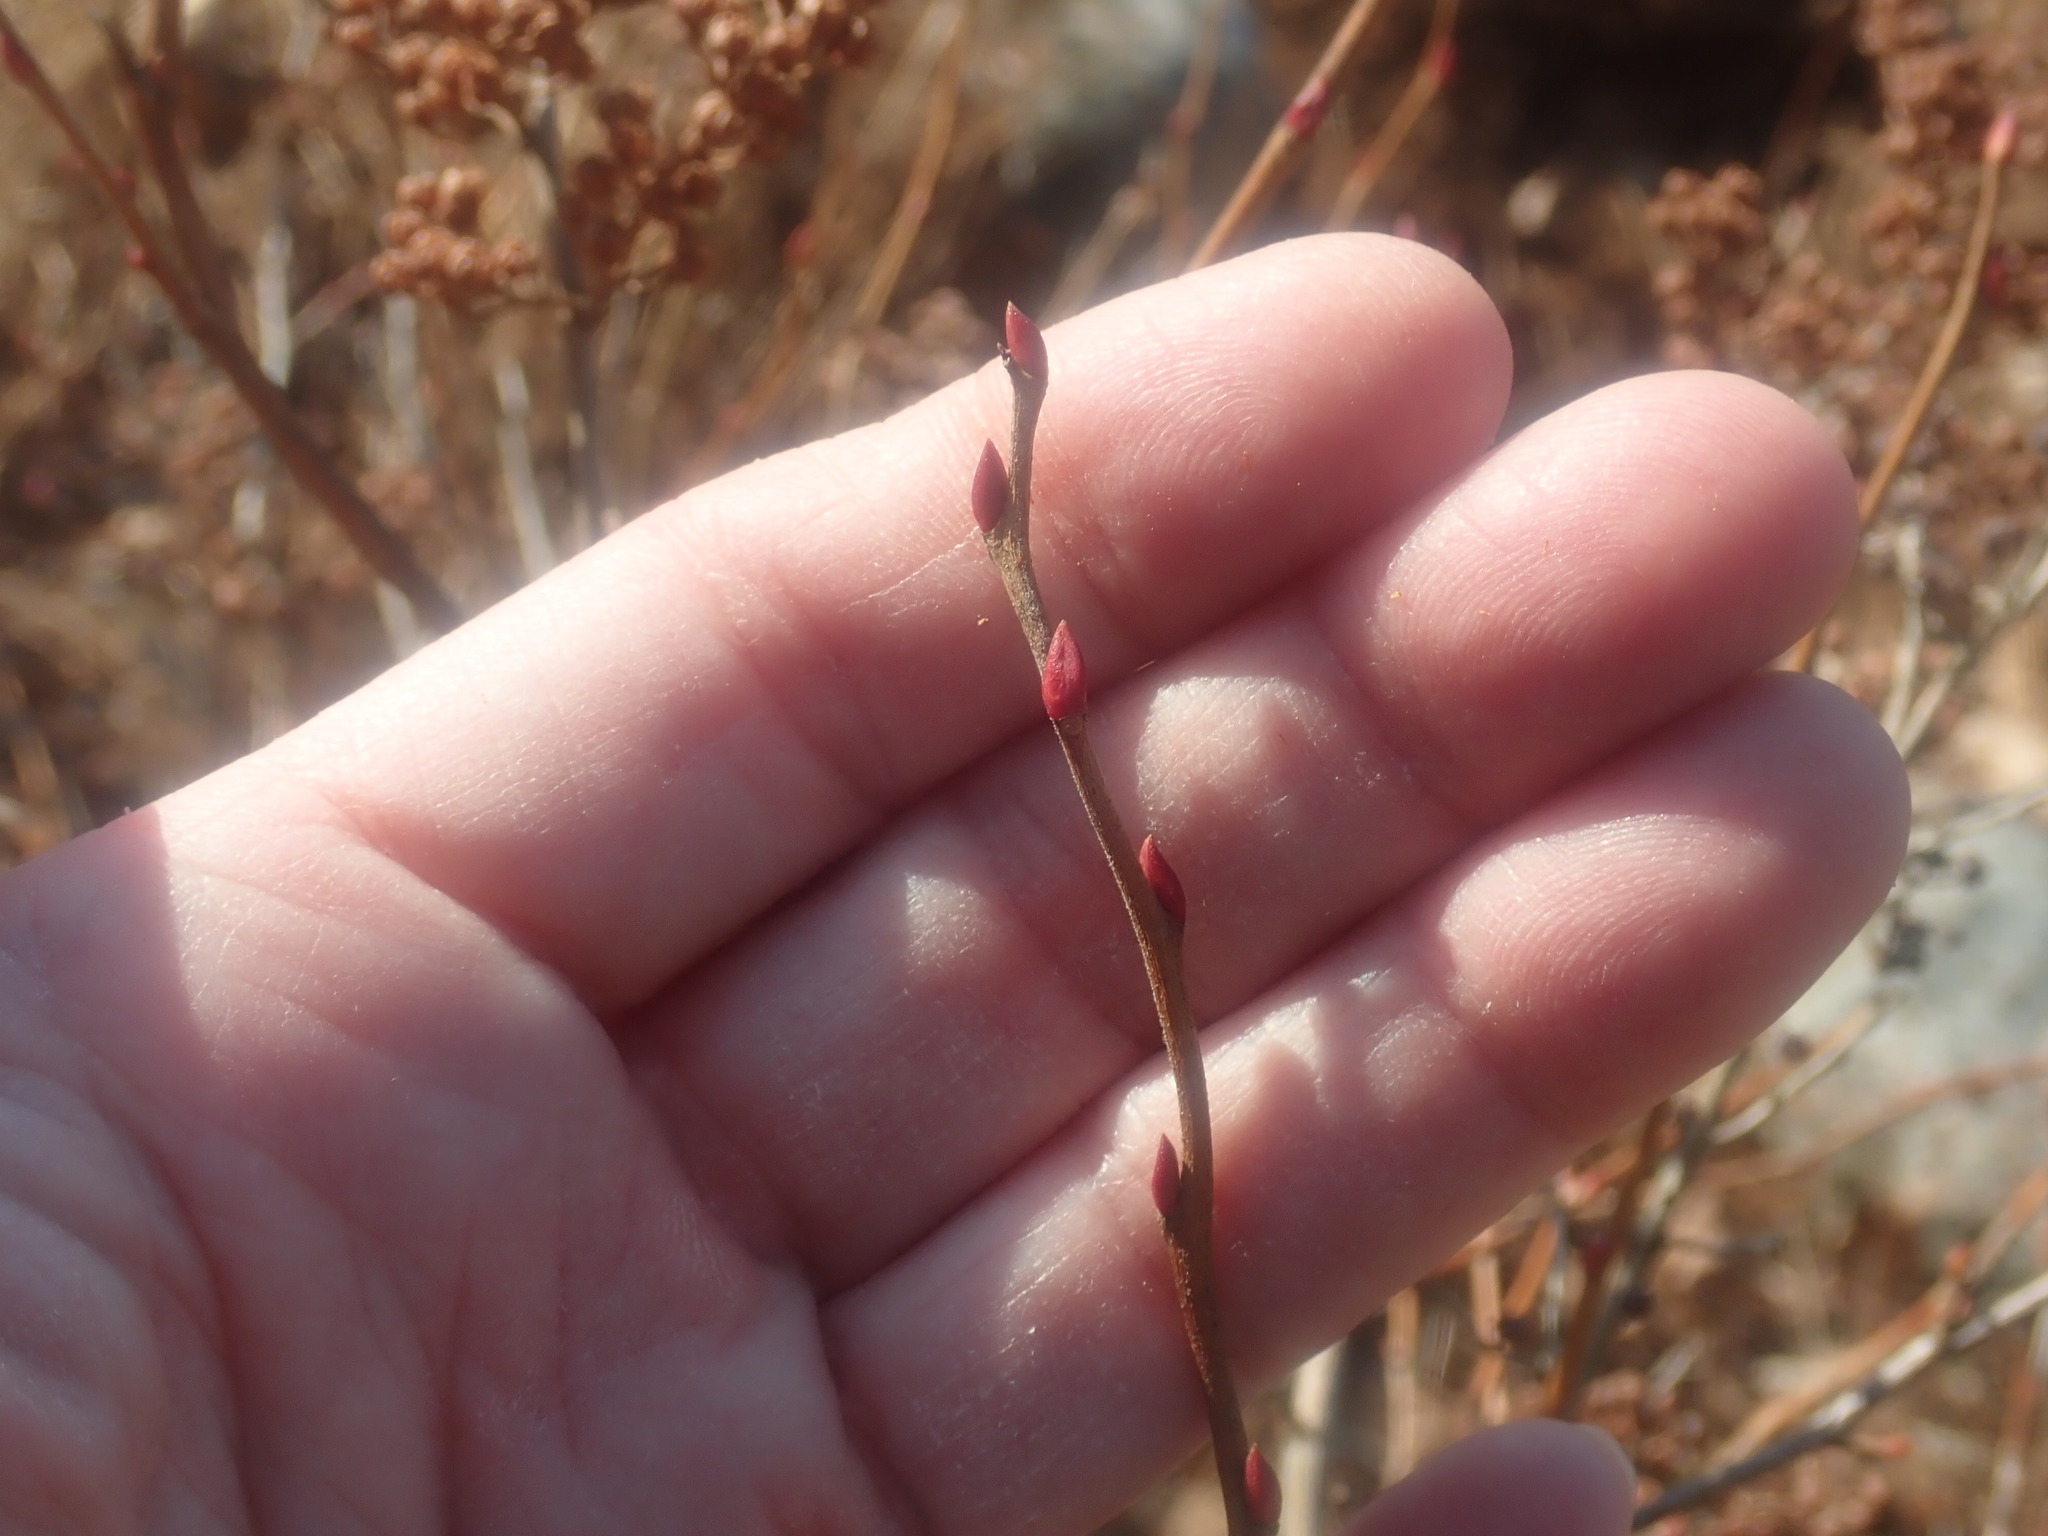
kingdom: Plantae
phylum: Tracheophyta
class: Magnoliopsida
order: Ericales
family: Ericaceae
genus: Lyonia
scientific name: Lyonia ligustrina
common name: Maleberry
